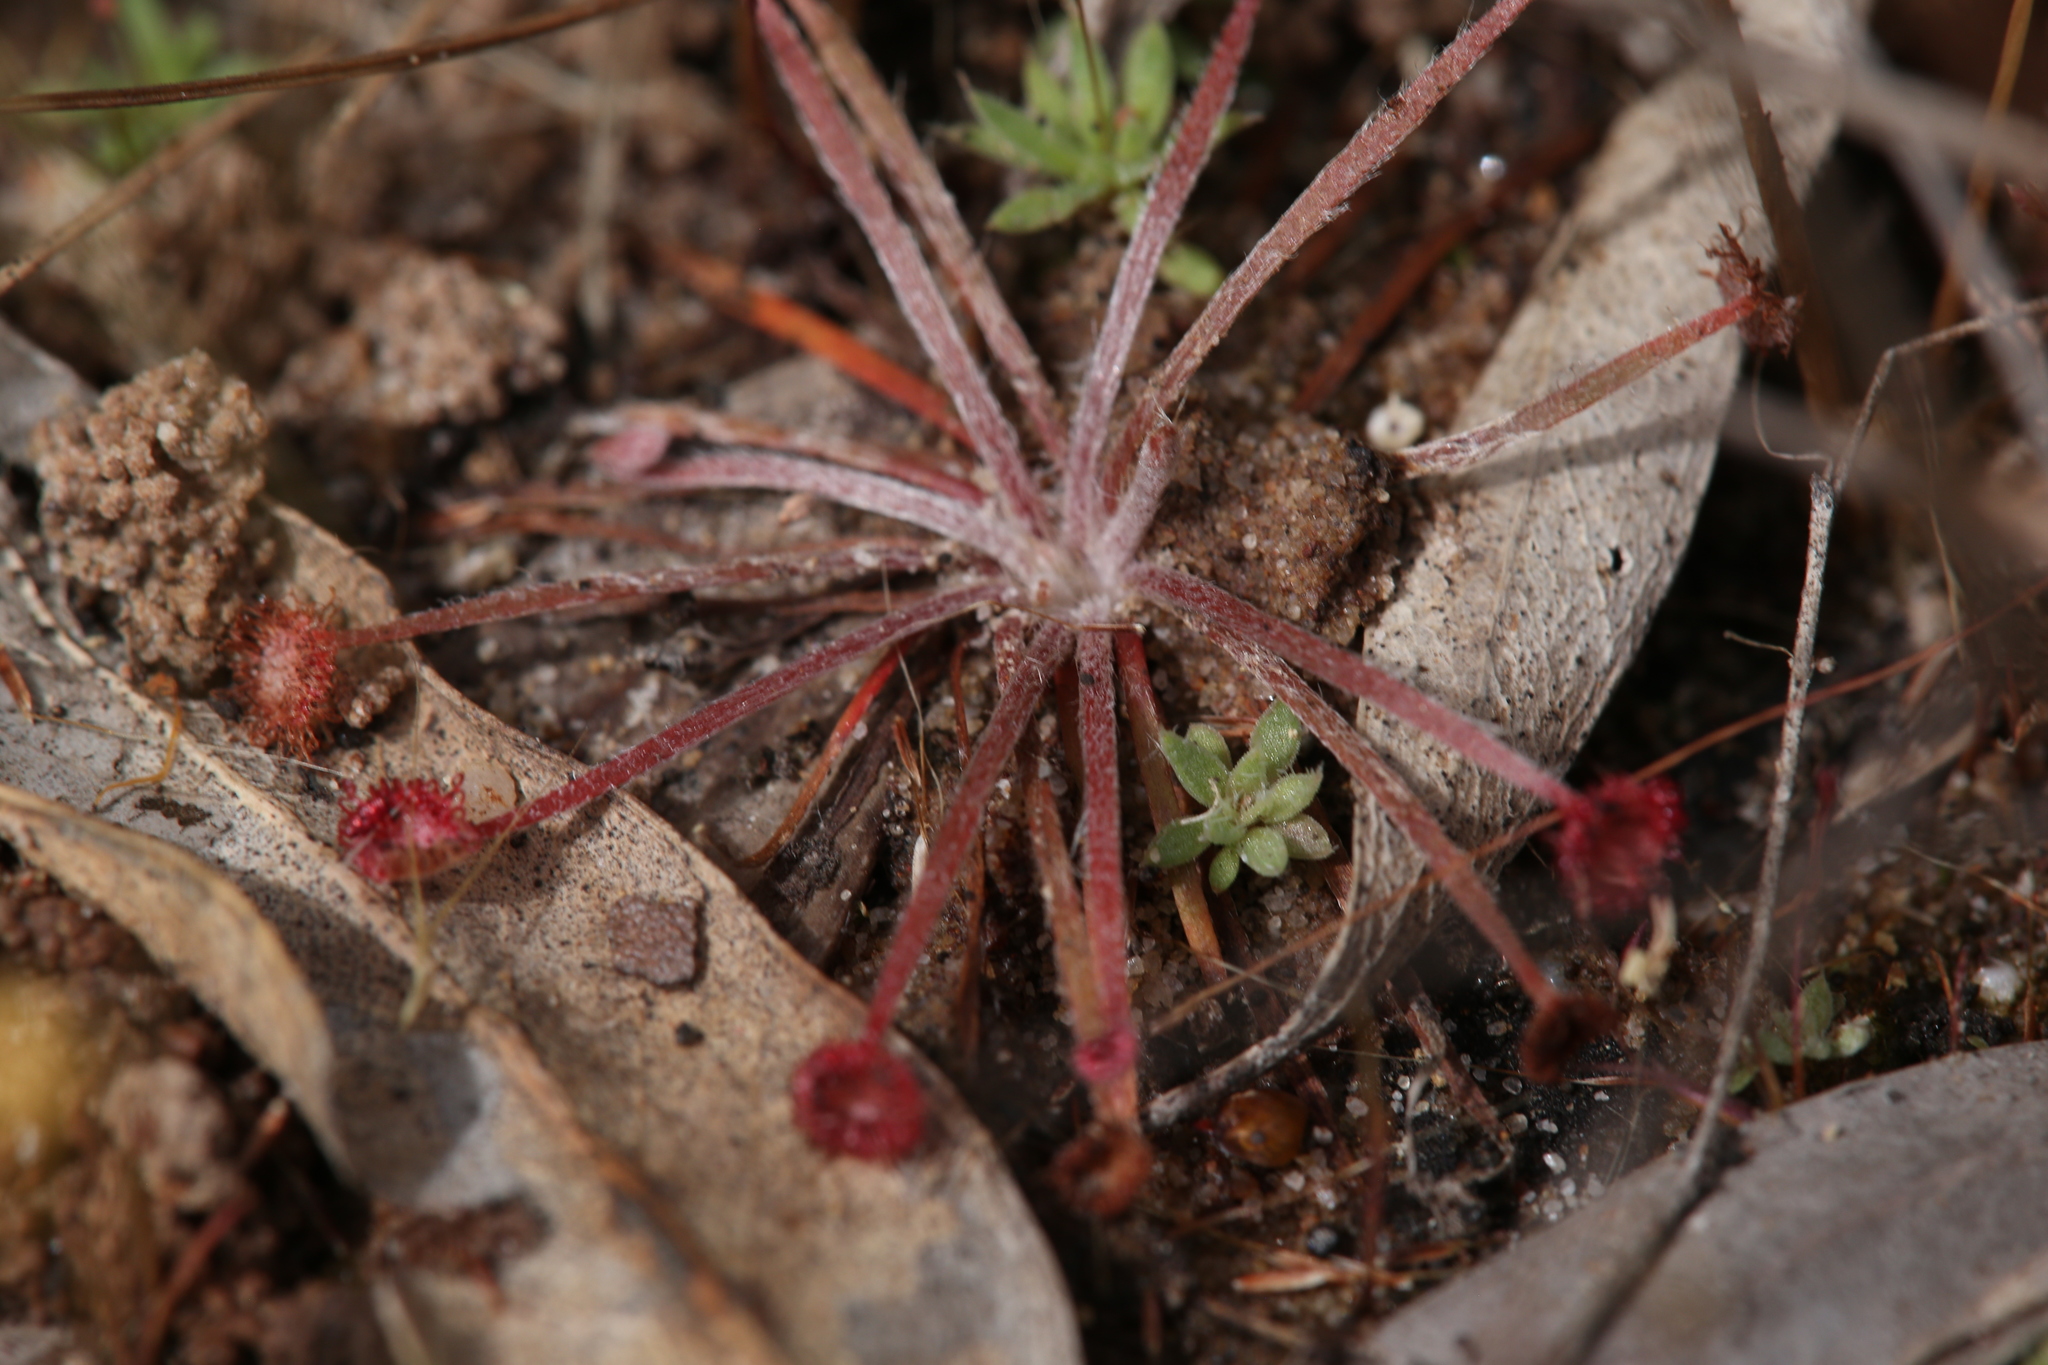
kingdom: Plantae
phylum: Tracheophyta
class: Magnoliopsida
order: Caryophyllales
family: Droseraceae
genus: Drosera
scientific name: Drosera petiolaris
